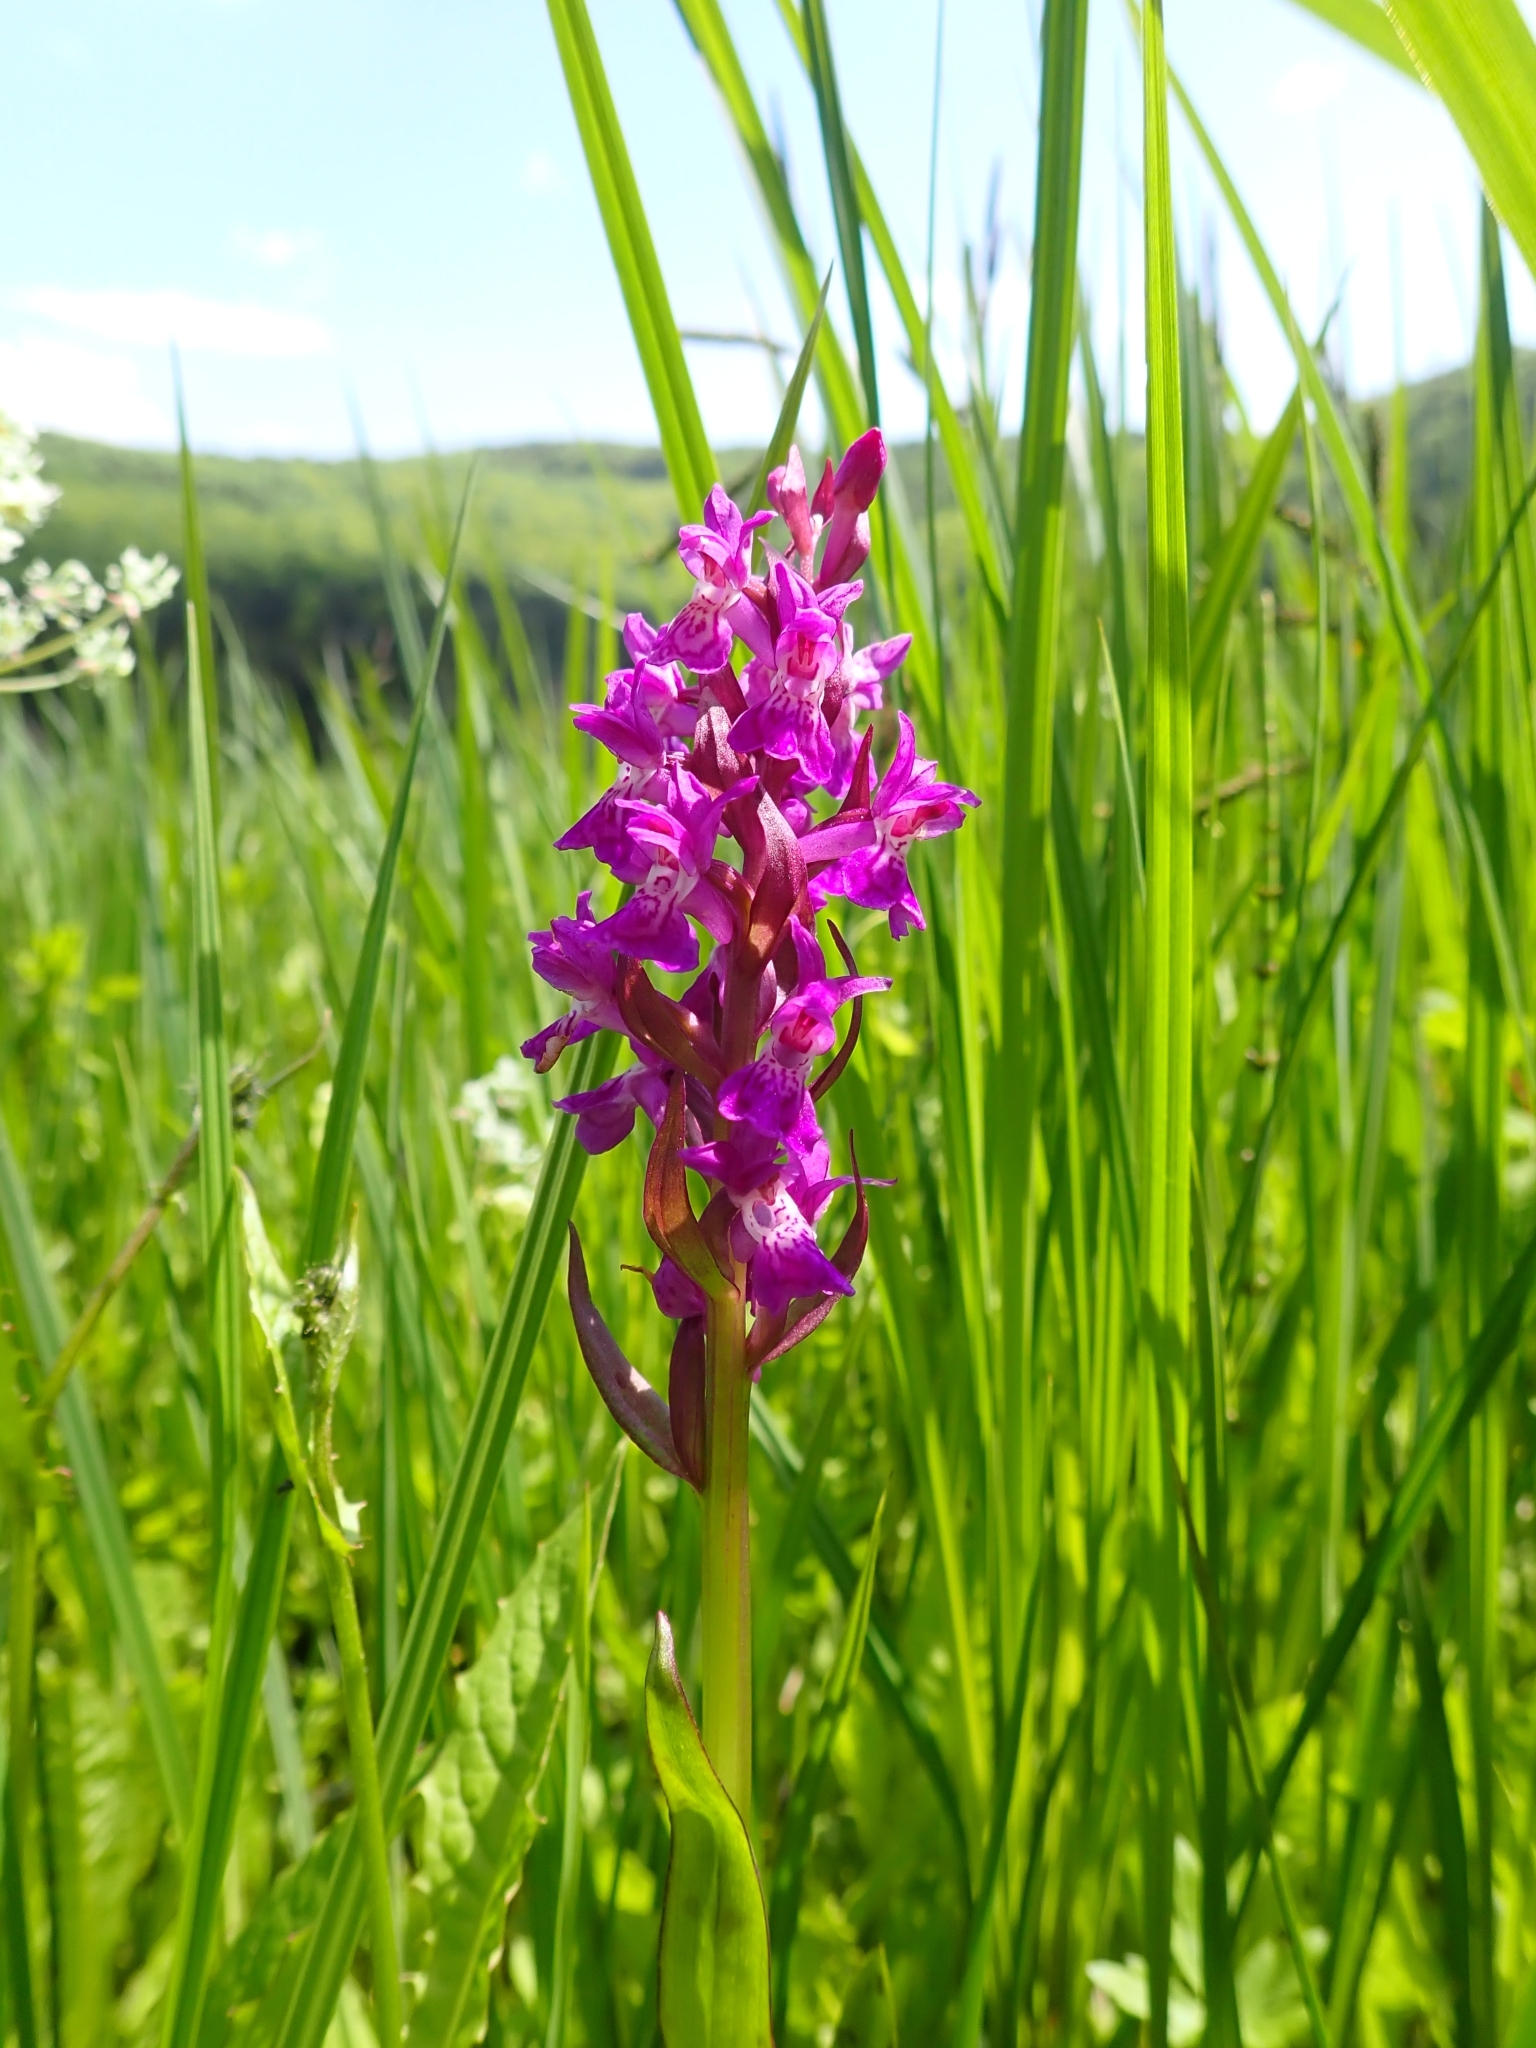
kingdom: Plantae
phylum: Tracheophyta
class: Liliopsida
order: Asparagales
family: Orchidaceae
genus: Dactylorhiza
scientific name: Dactylorhiza majalis
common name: Marsh orchid
